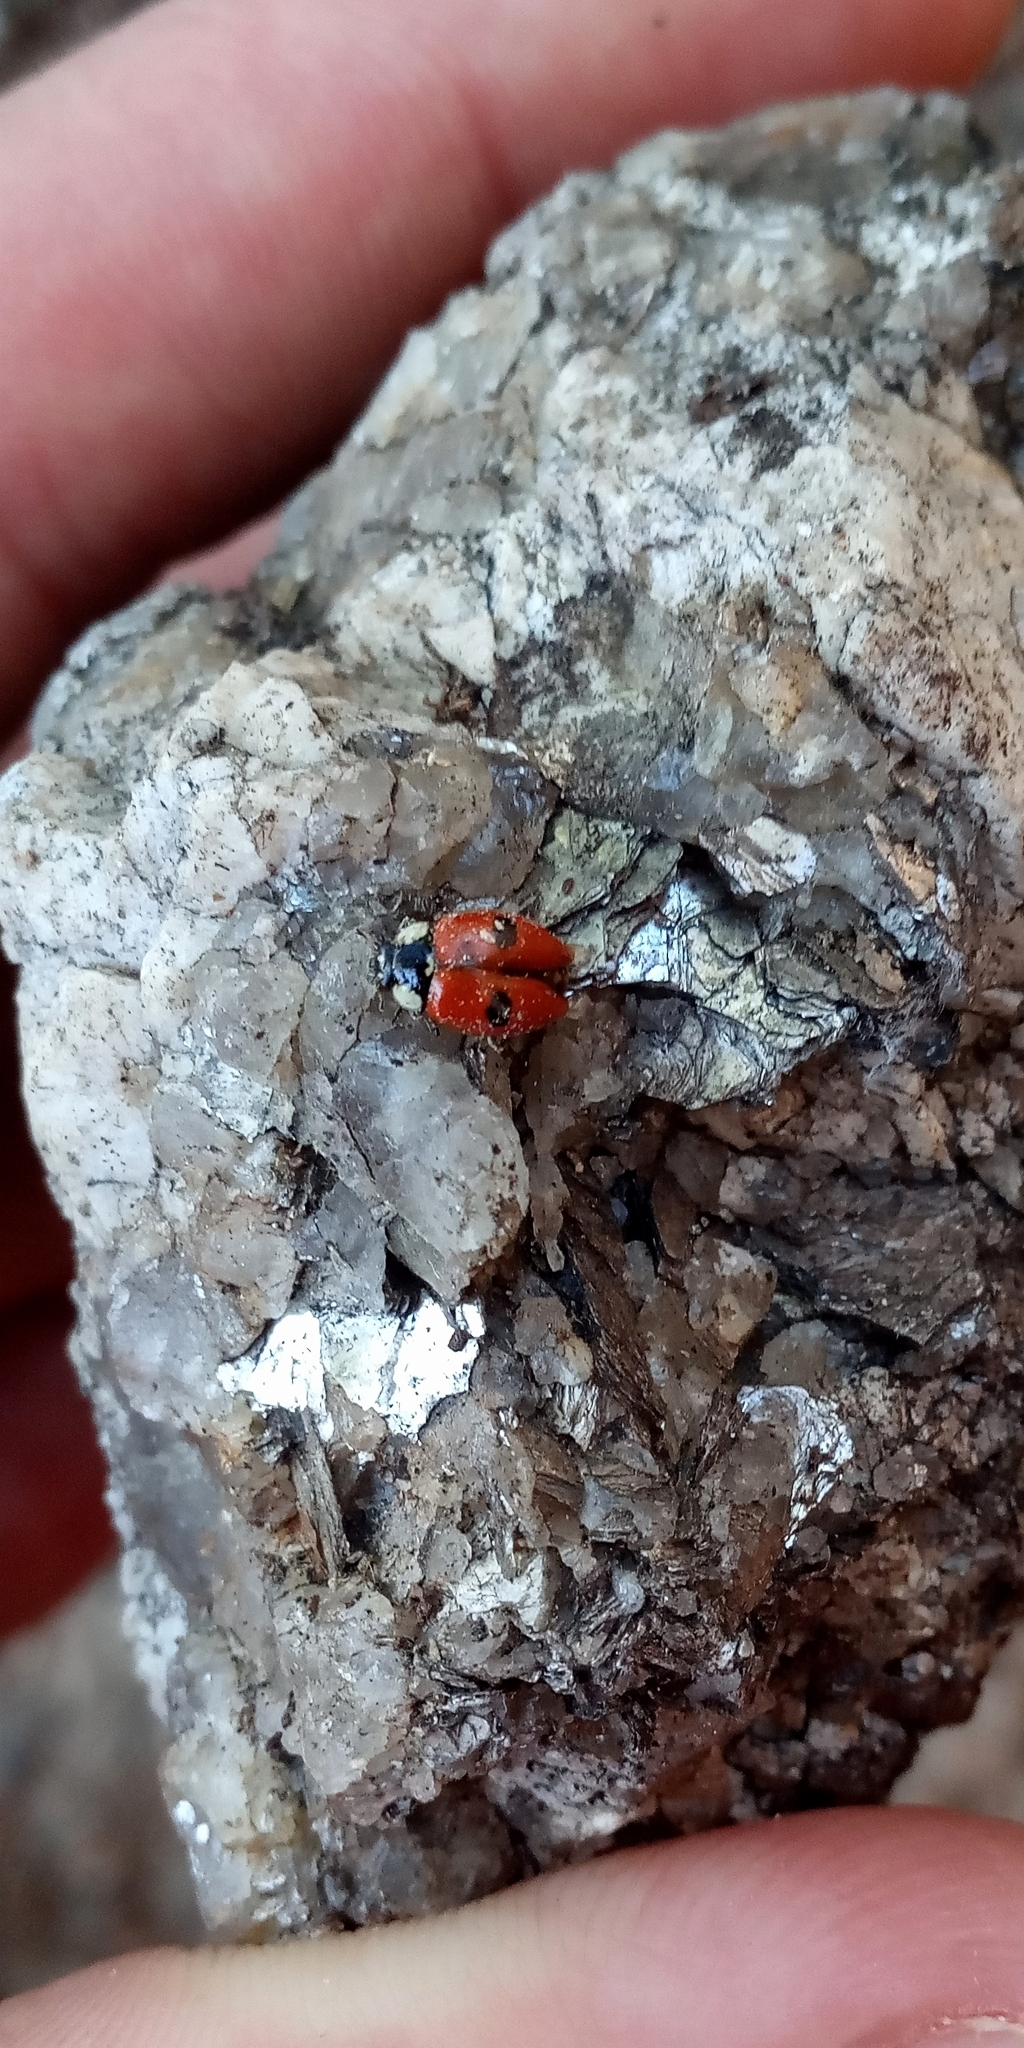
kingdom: Animalia
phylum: Arthropoda
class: Insecta
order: Coleoptera
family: Coccinellidae
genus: Adalia
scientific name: Adalia bipunctata
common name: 2-spot ladybird
